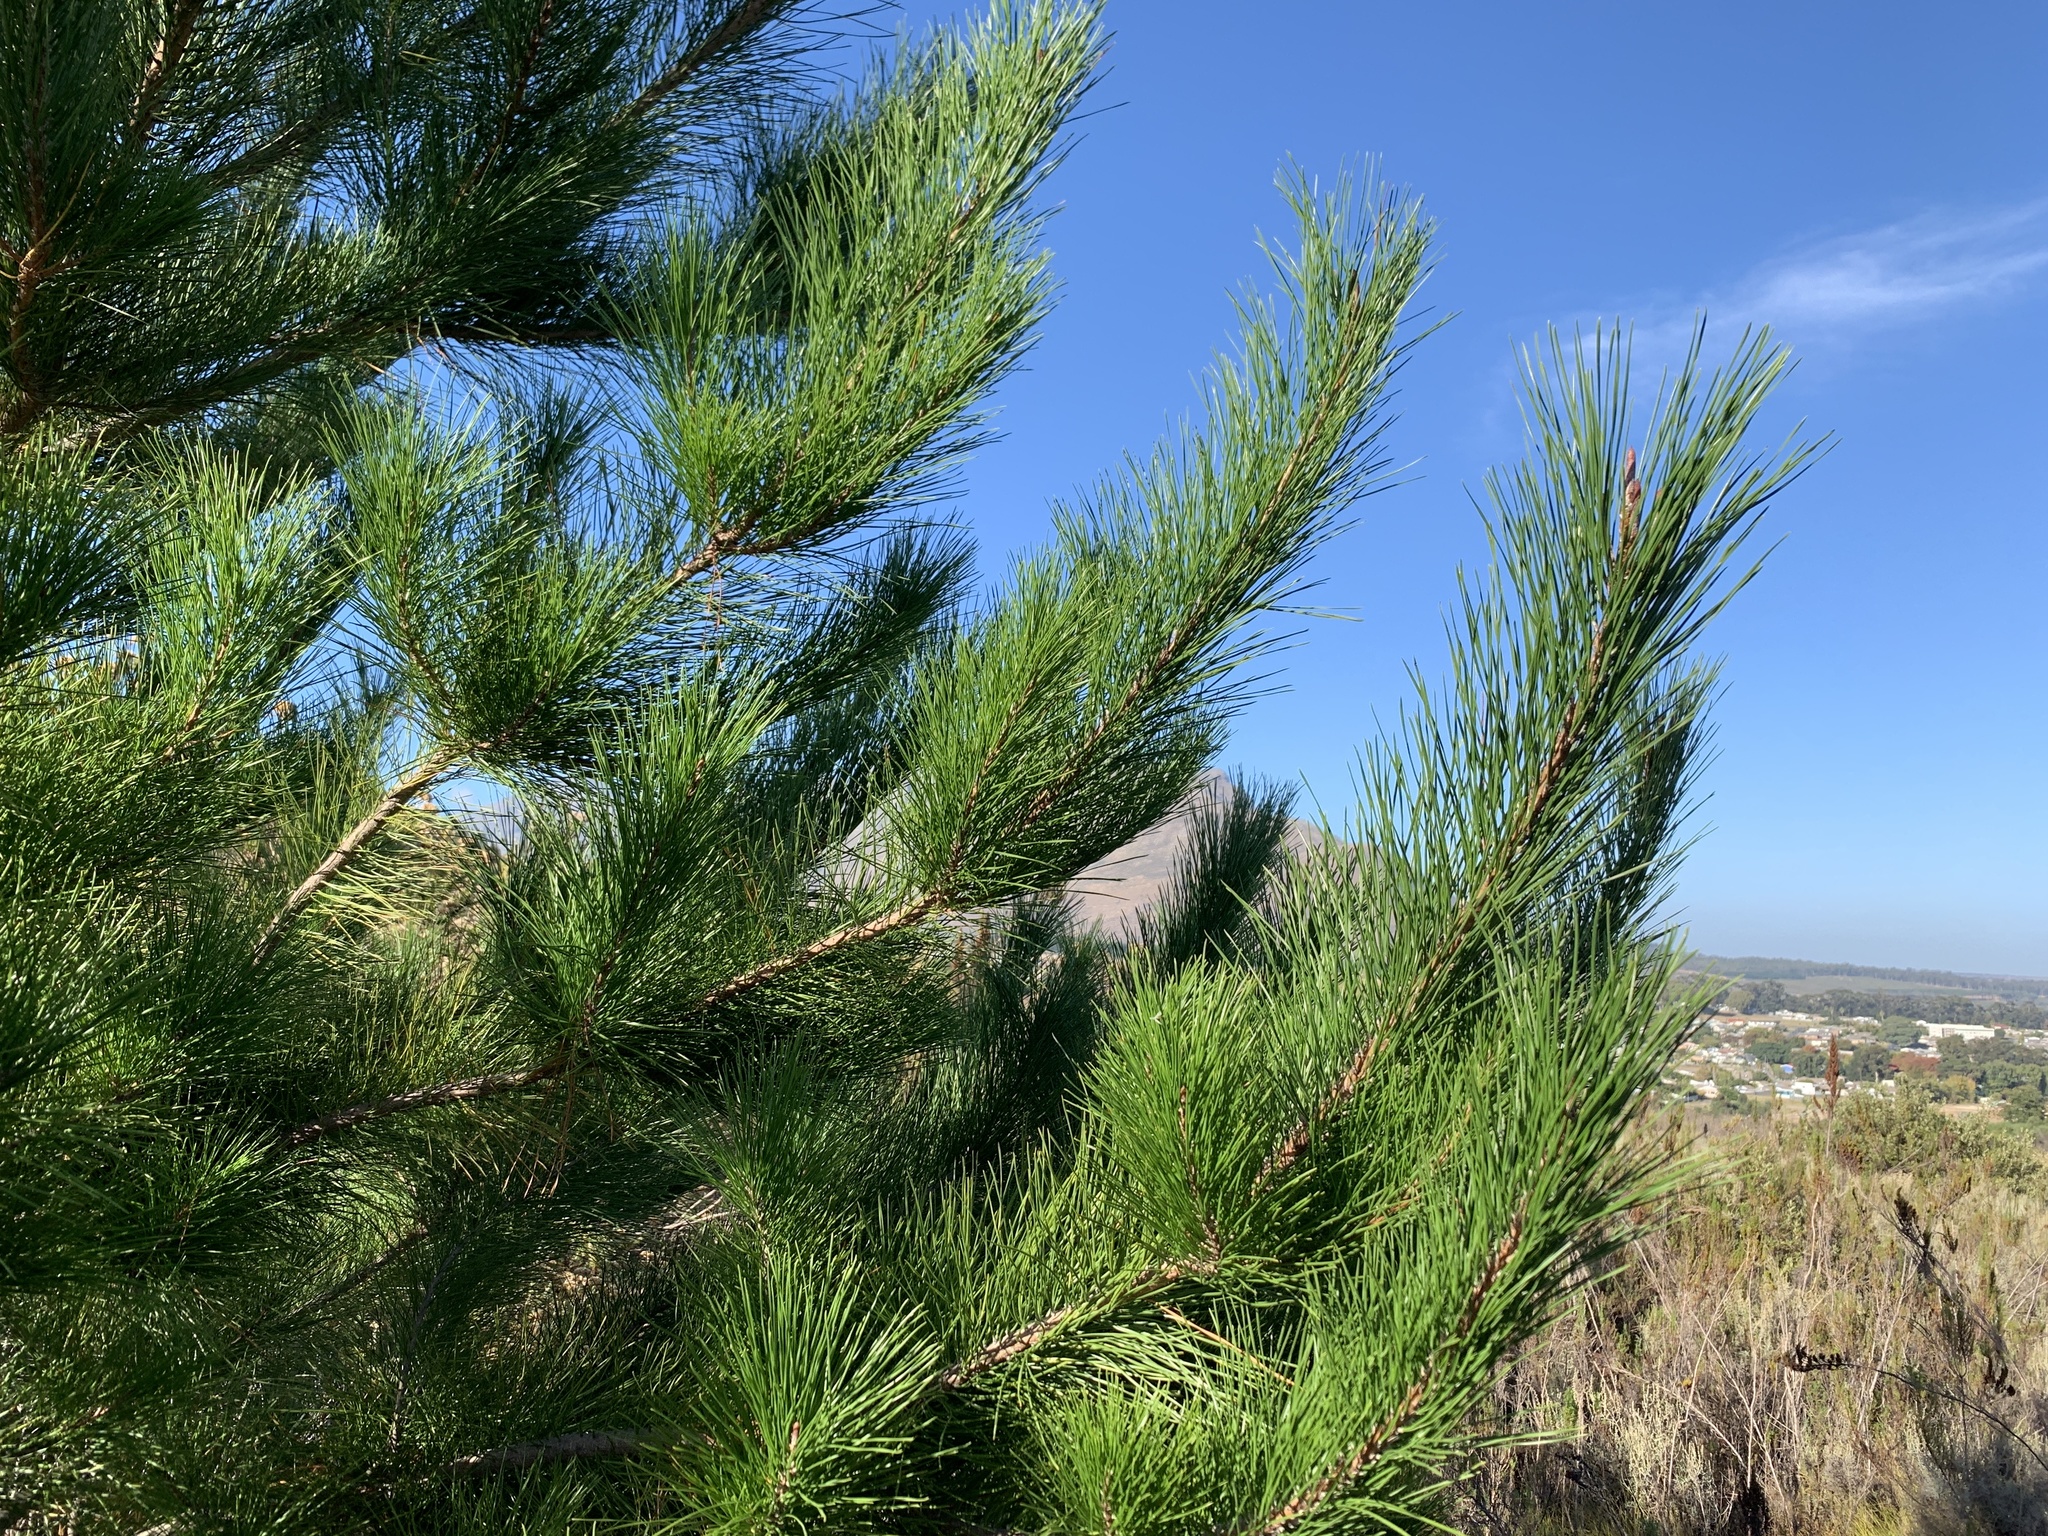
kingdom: Plantae
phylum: Tracheophyta
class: Pinopsida
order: Pinales
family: Pinaceae
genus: Pinus
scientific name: Pinus radiata
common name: Monterey pine
